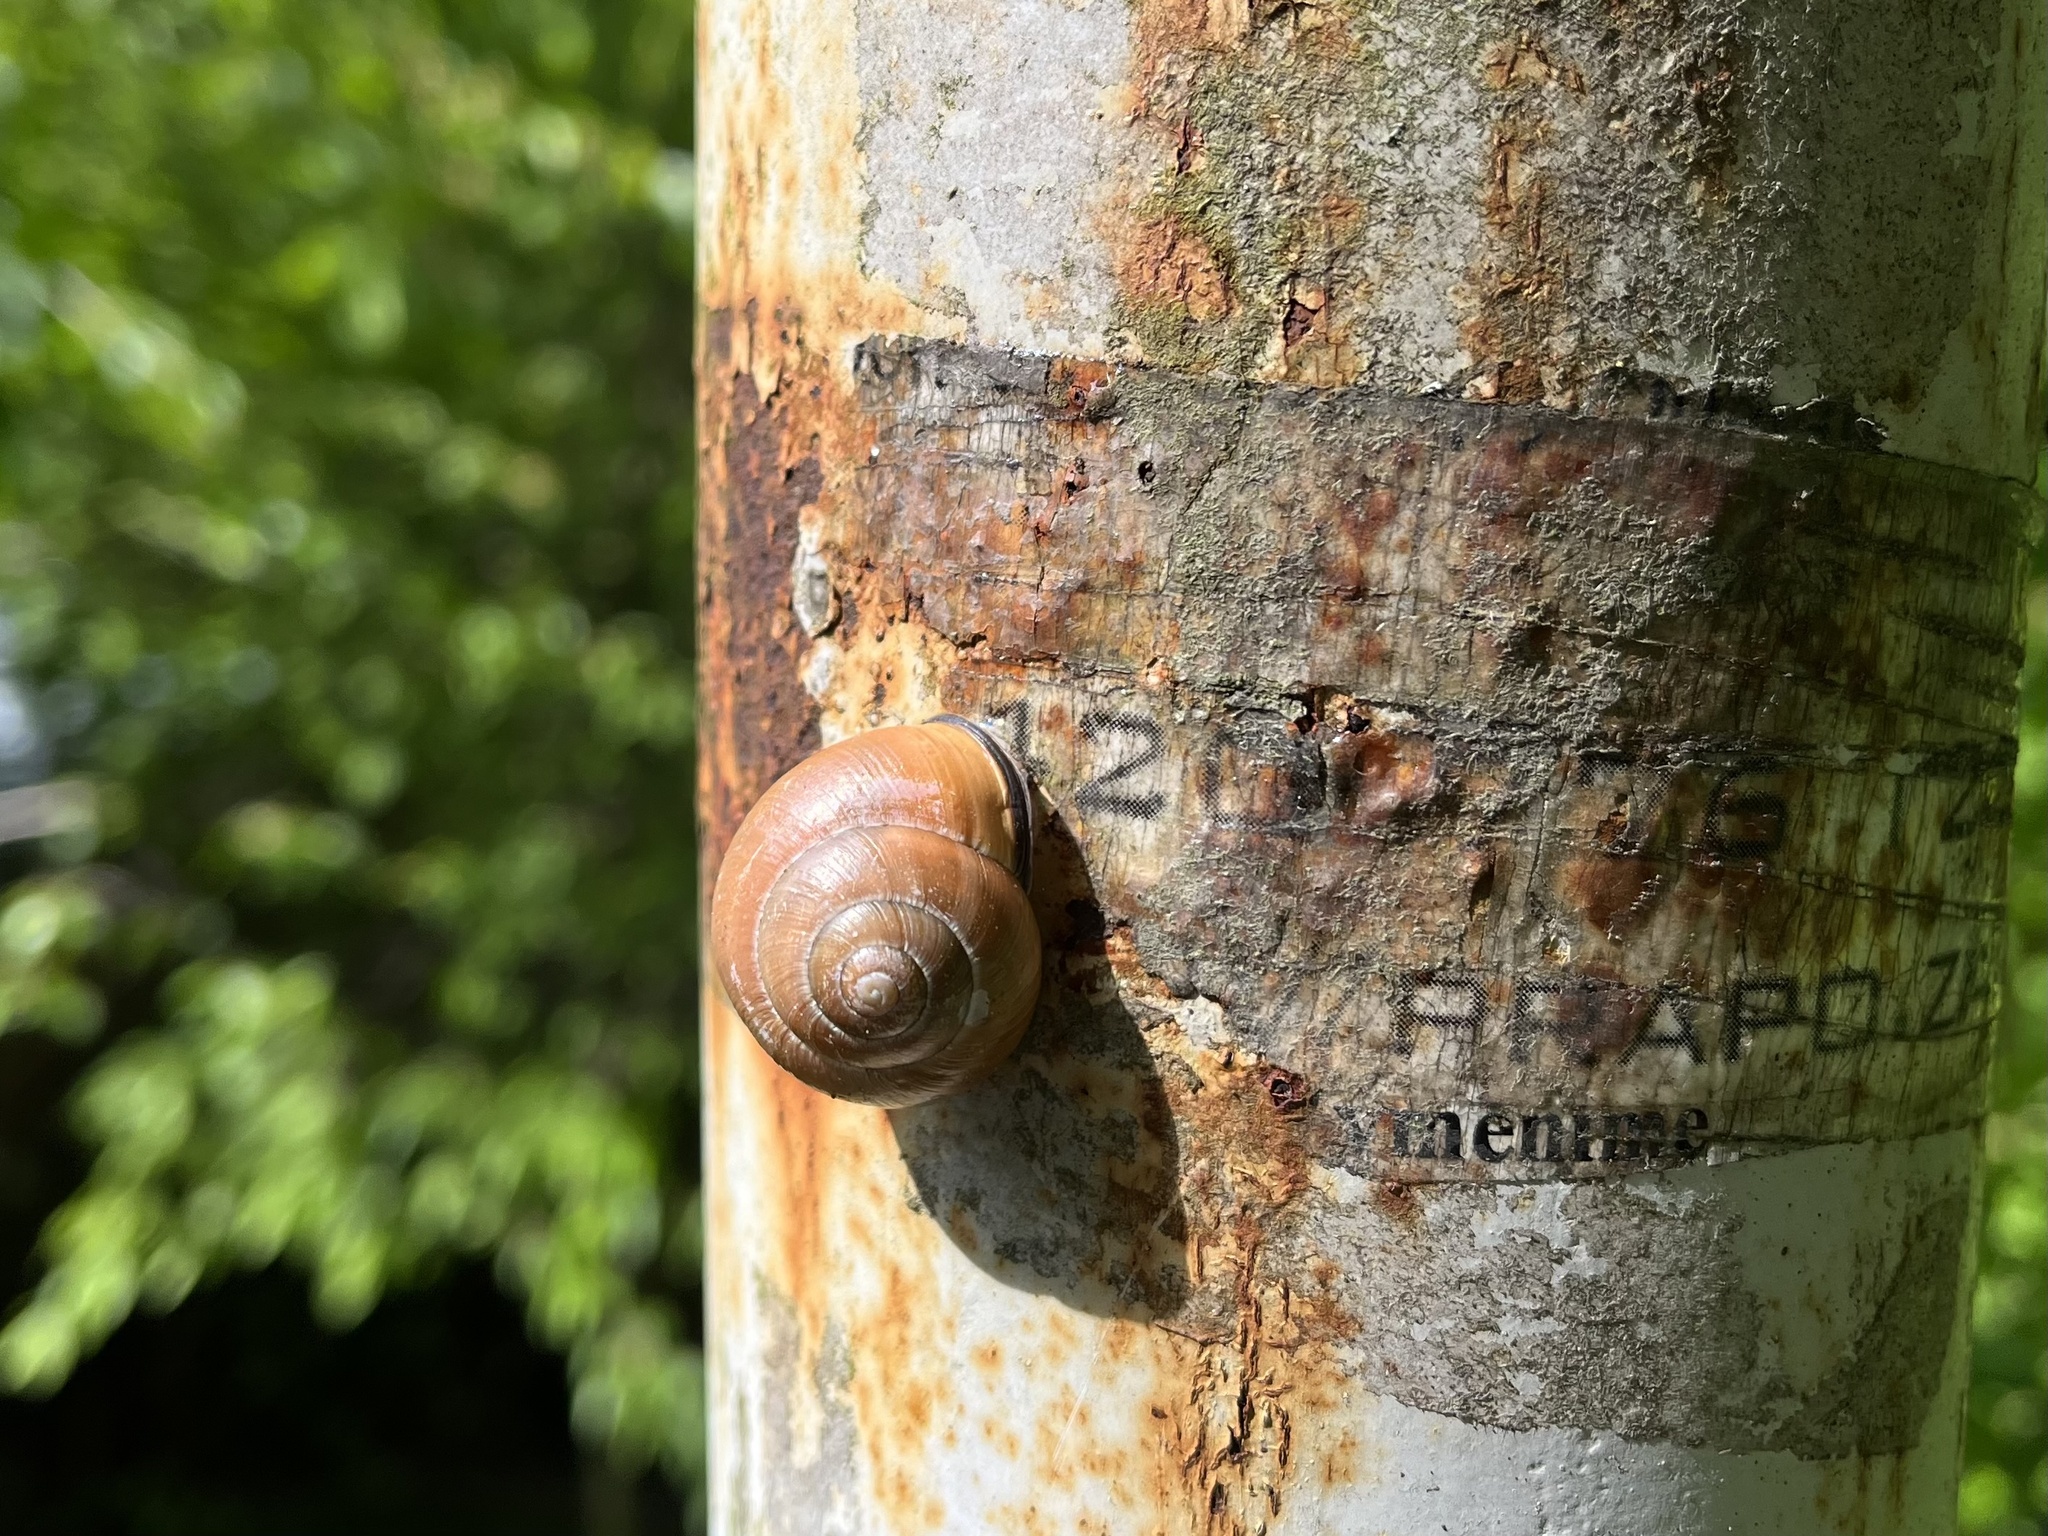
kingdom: Animalia
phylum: Mollusca
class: Gastropoda
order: Stylommatophora
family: Helicidae
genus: Cepaea
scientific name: Cepaea nemoralis
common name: Grovesnail
